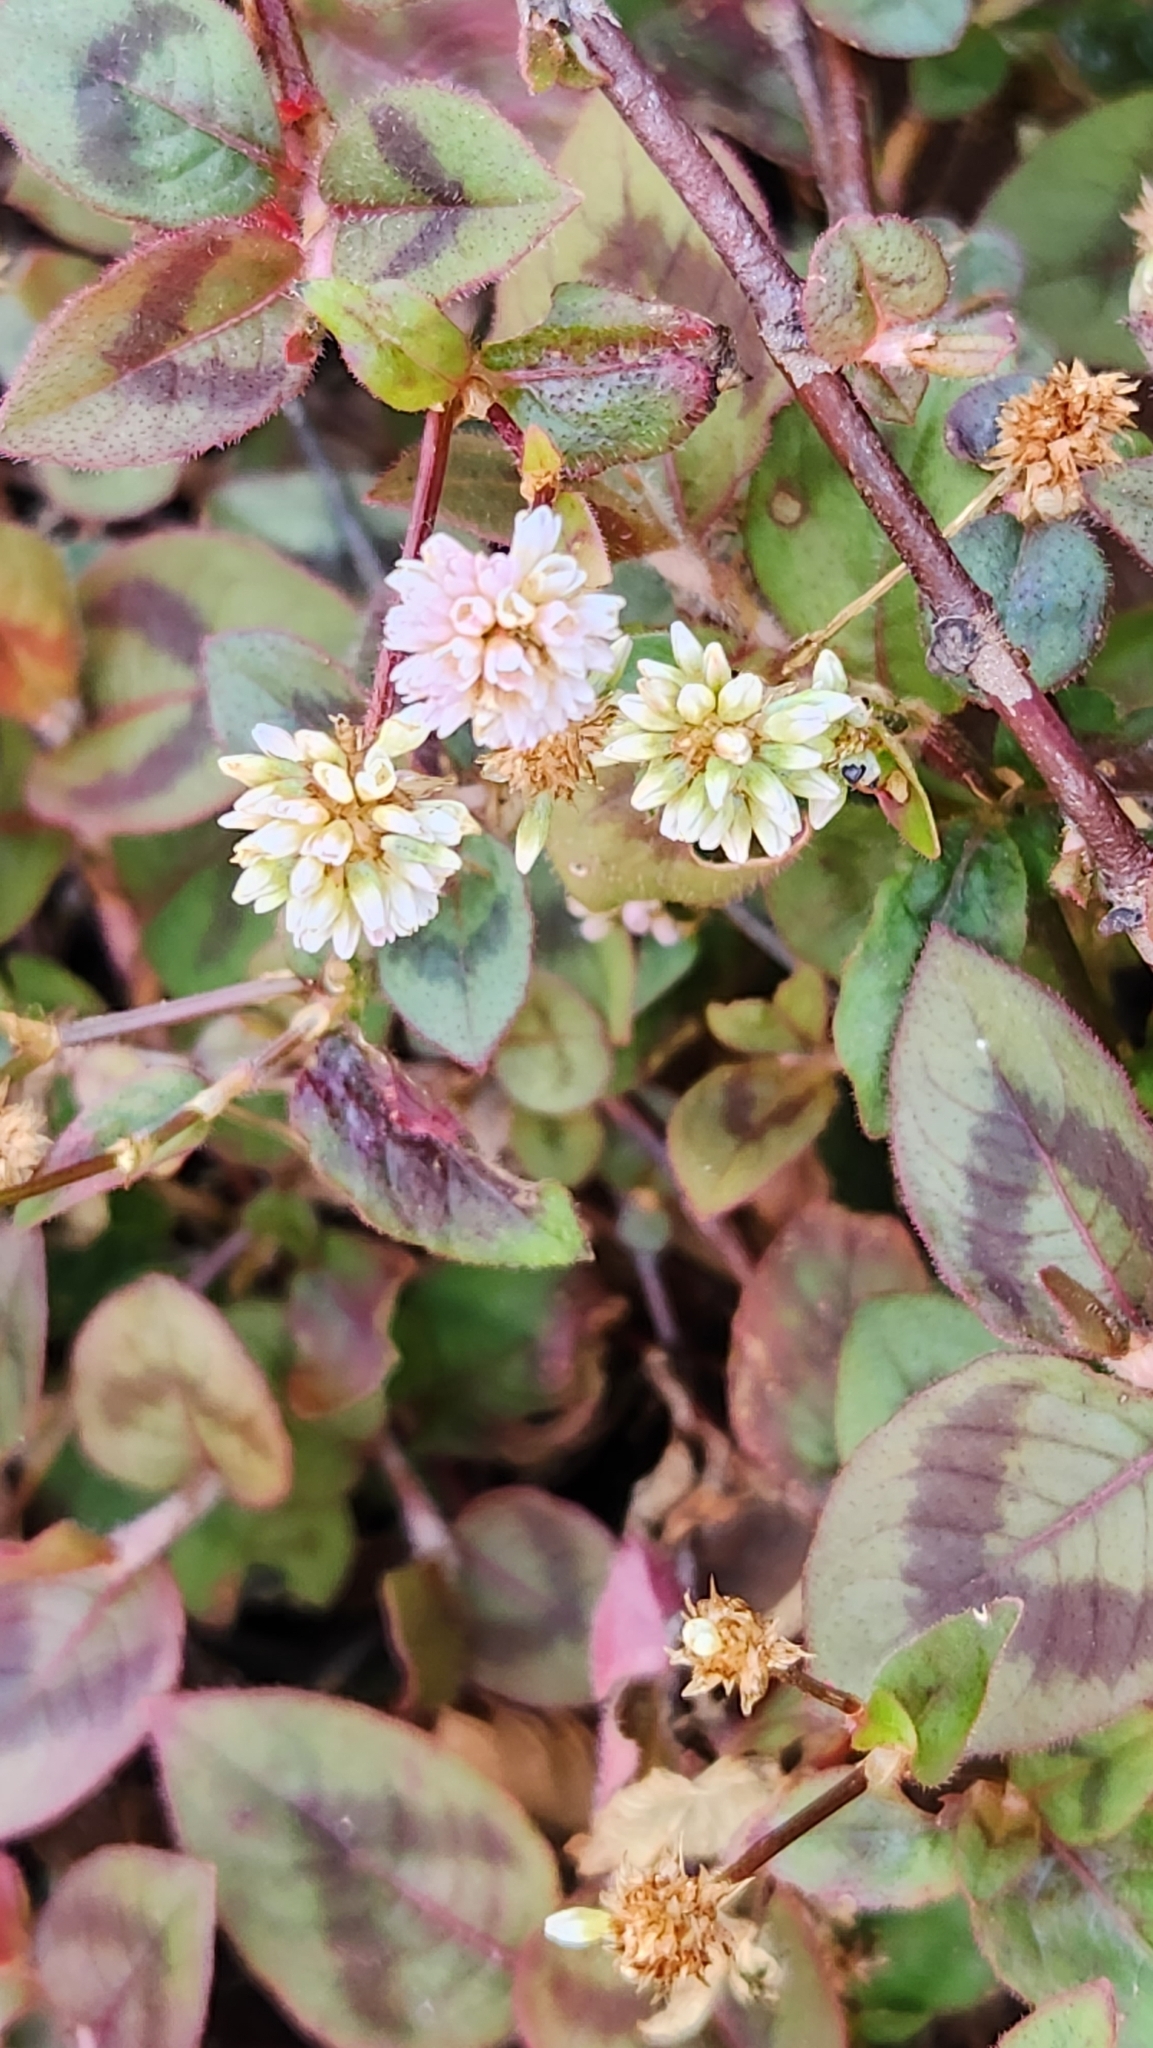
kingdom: Plantae
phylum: Tracheophyta
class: Magnoliopsida
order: Caryophyllales
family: Polygonaceae
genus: Persicaria
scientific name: Persicaria capitata
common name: Pinkhead smartweed
